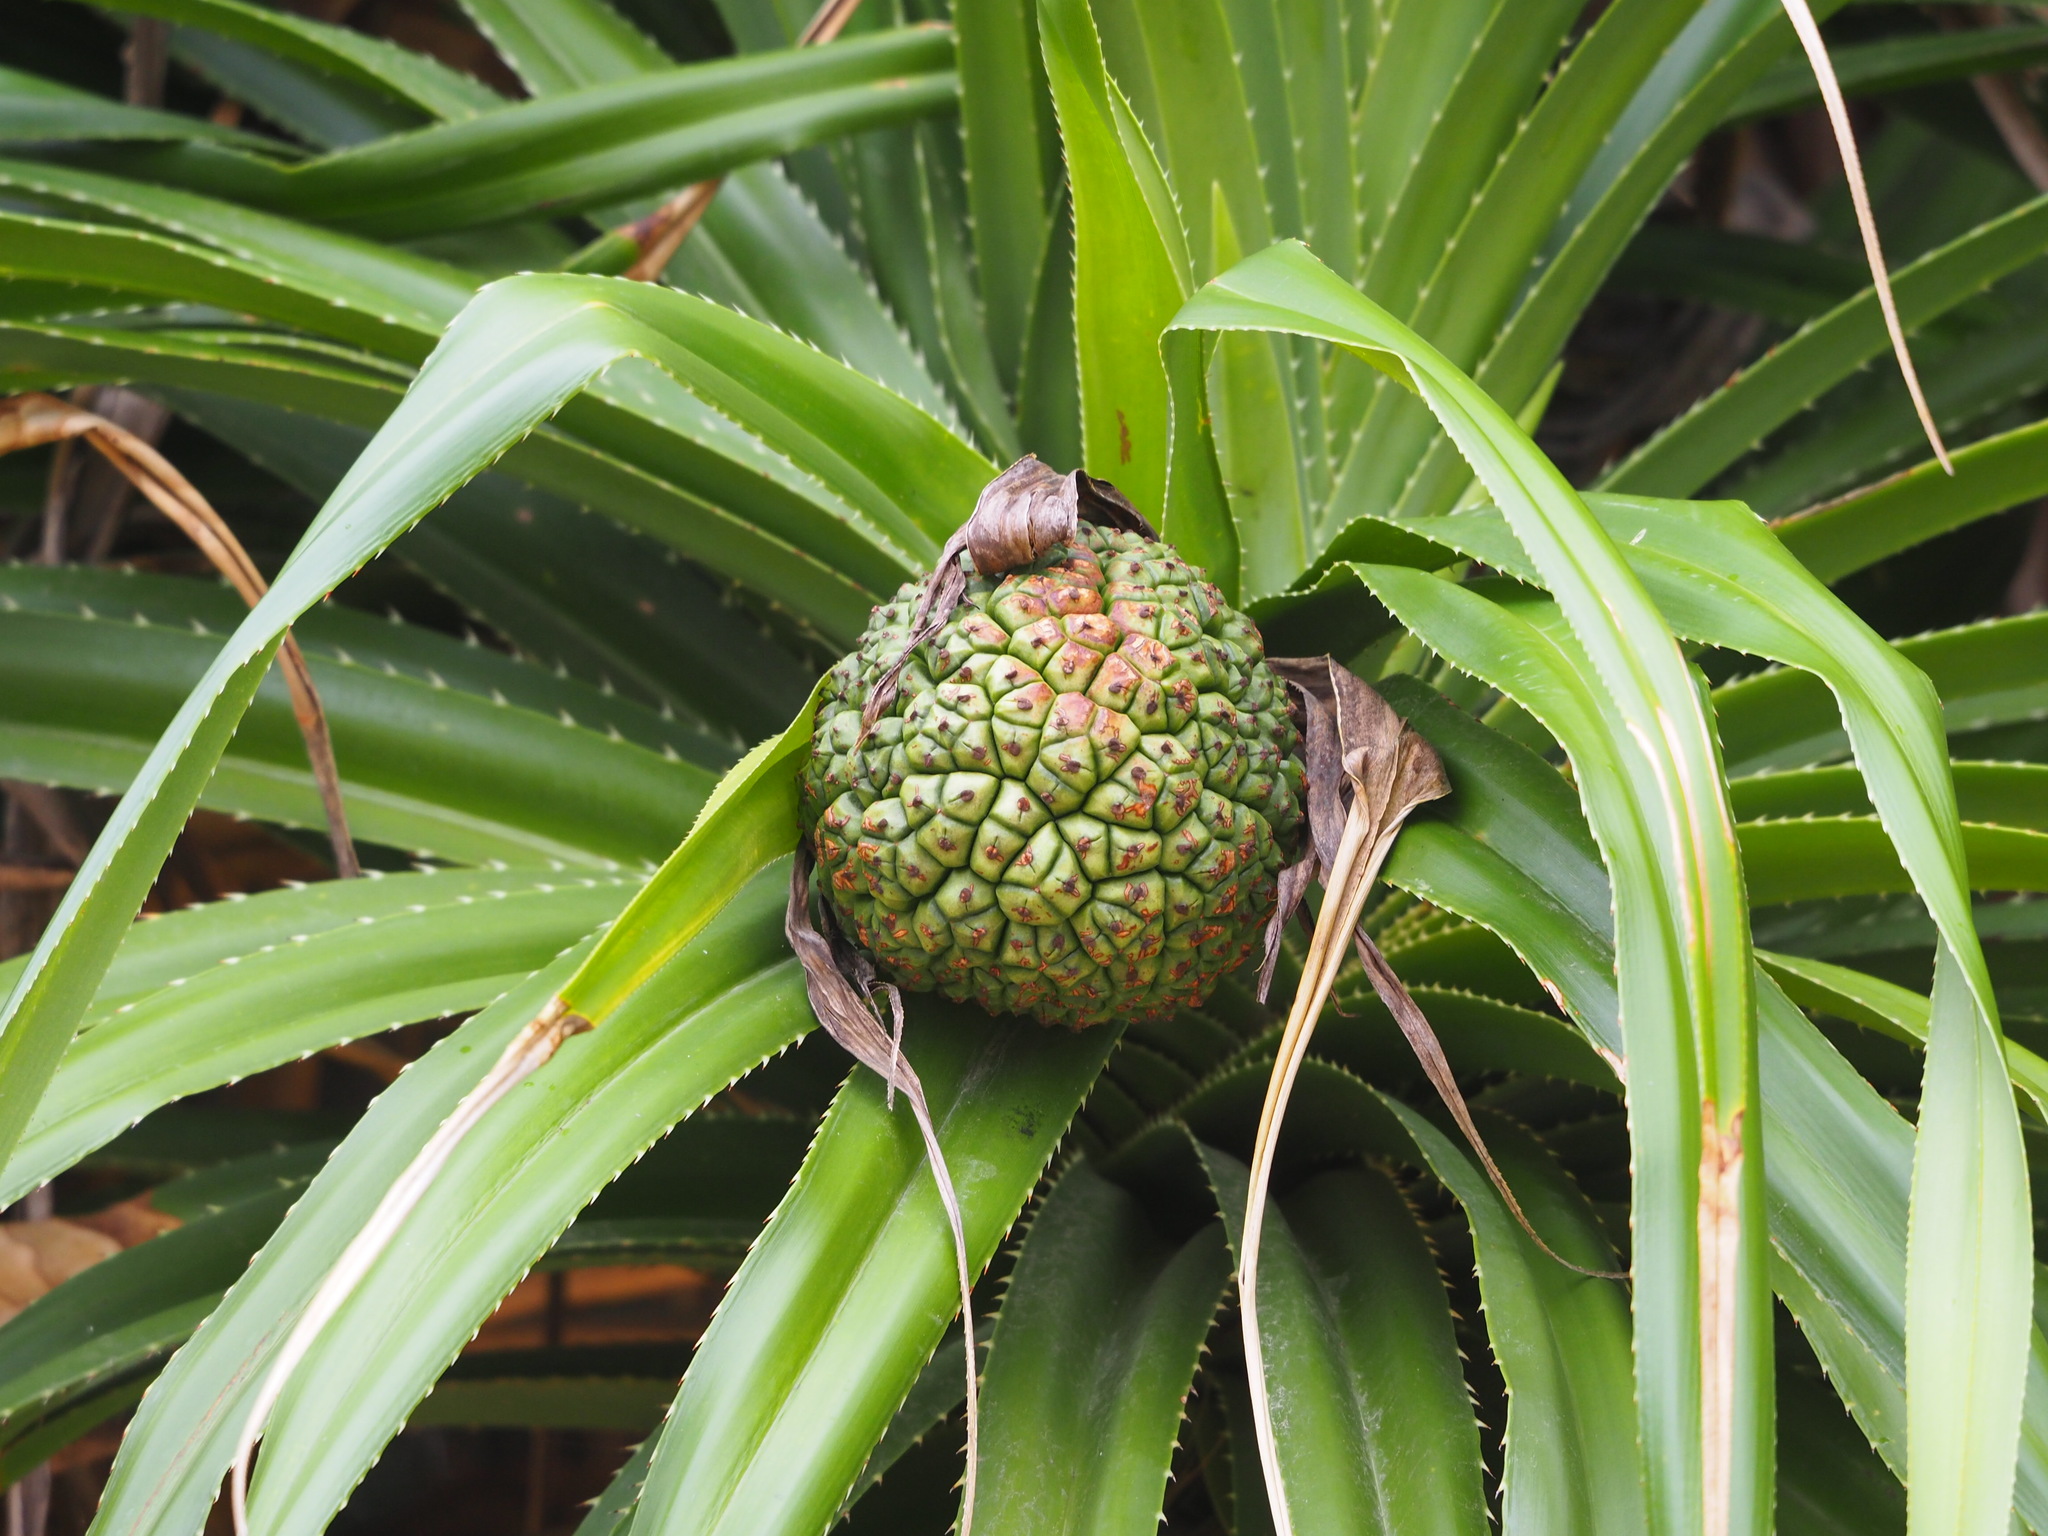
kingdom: Plantae
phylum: Tracheophyta
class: Liliopsida
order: Pandanales
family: Pandanaceae
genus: Pandanus
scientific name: Pandanus odorifer
